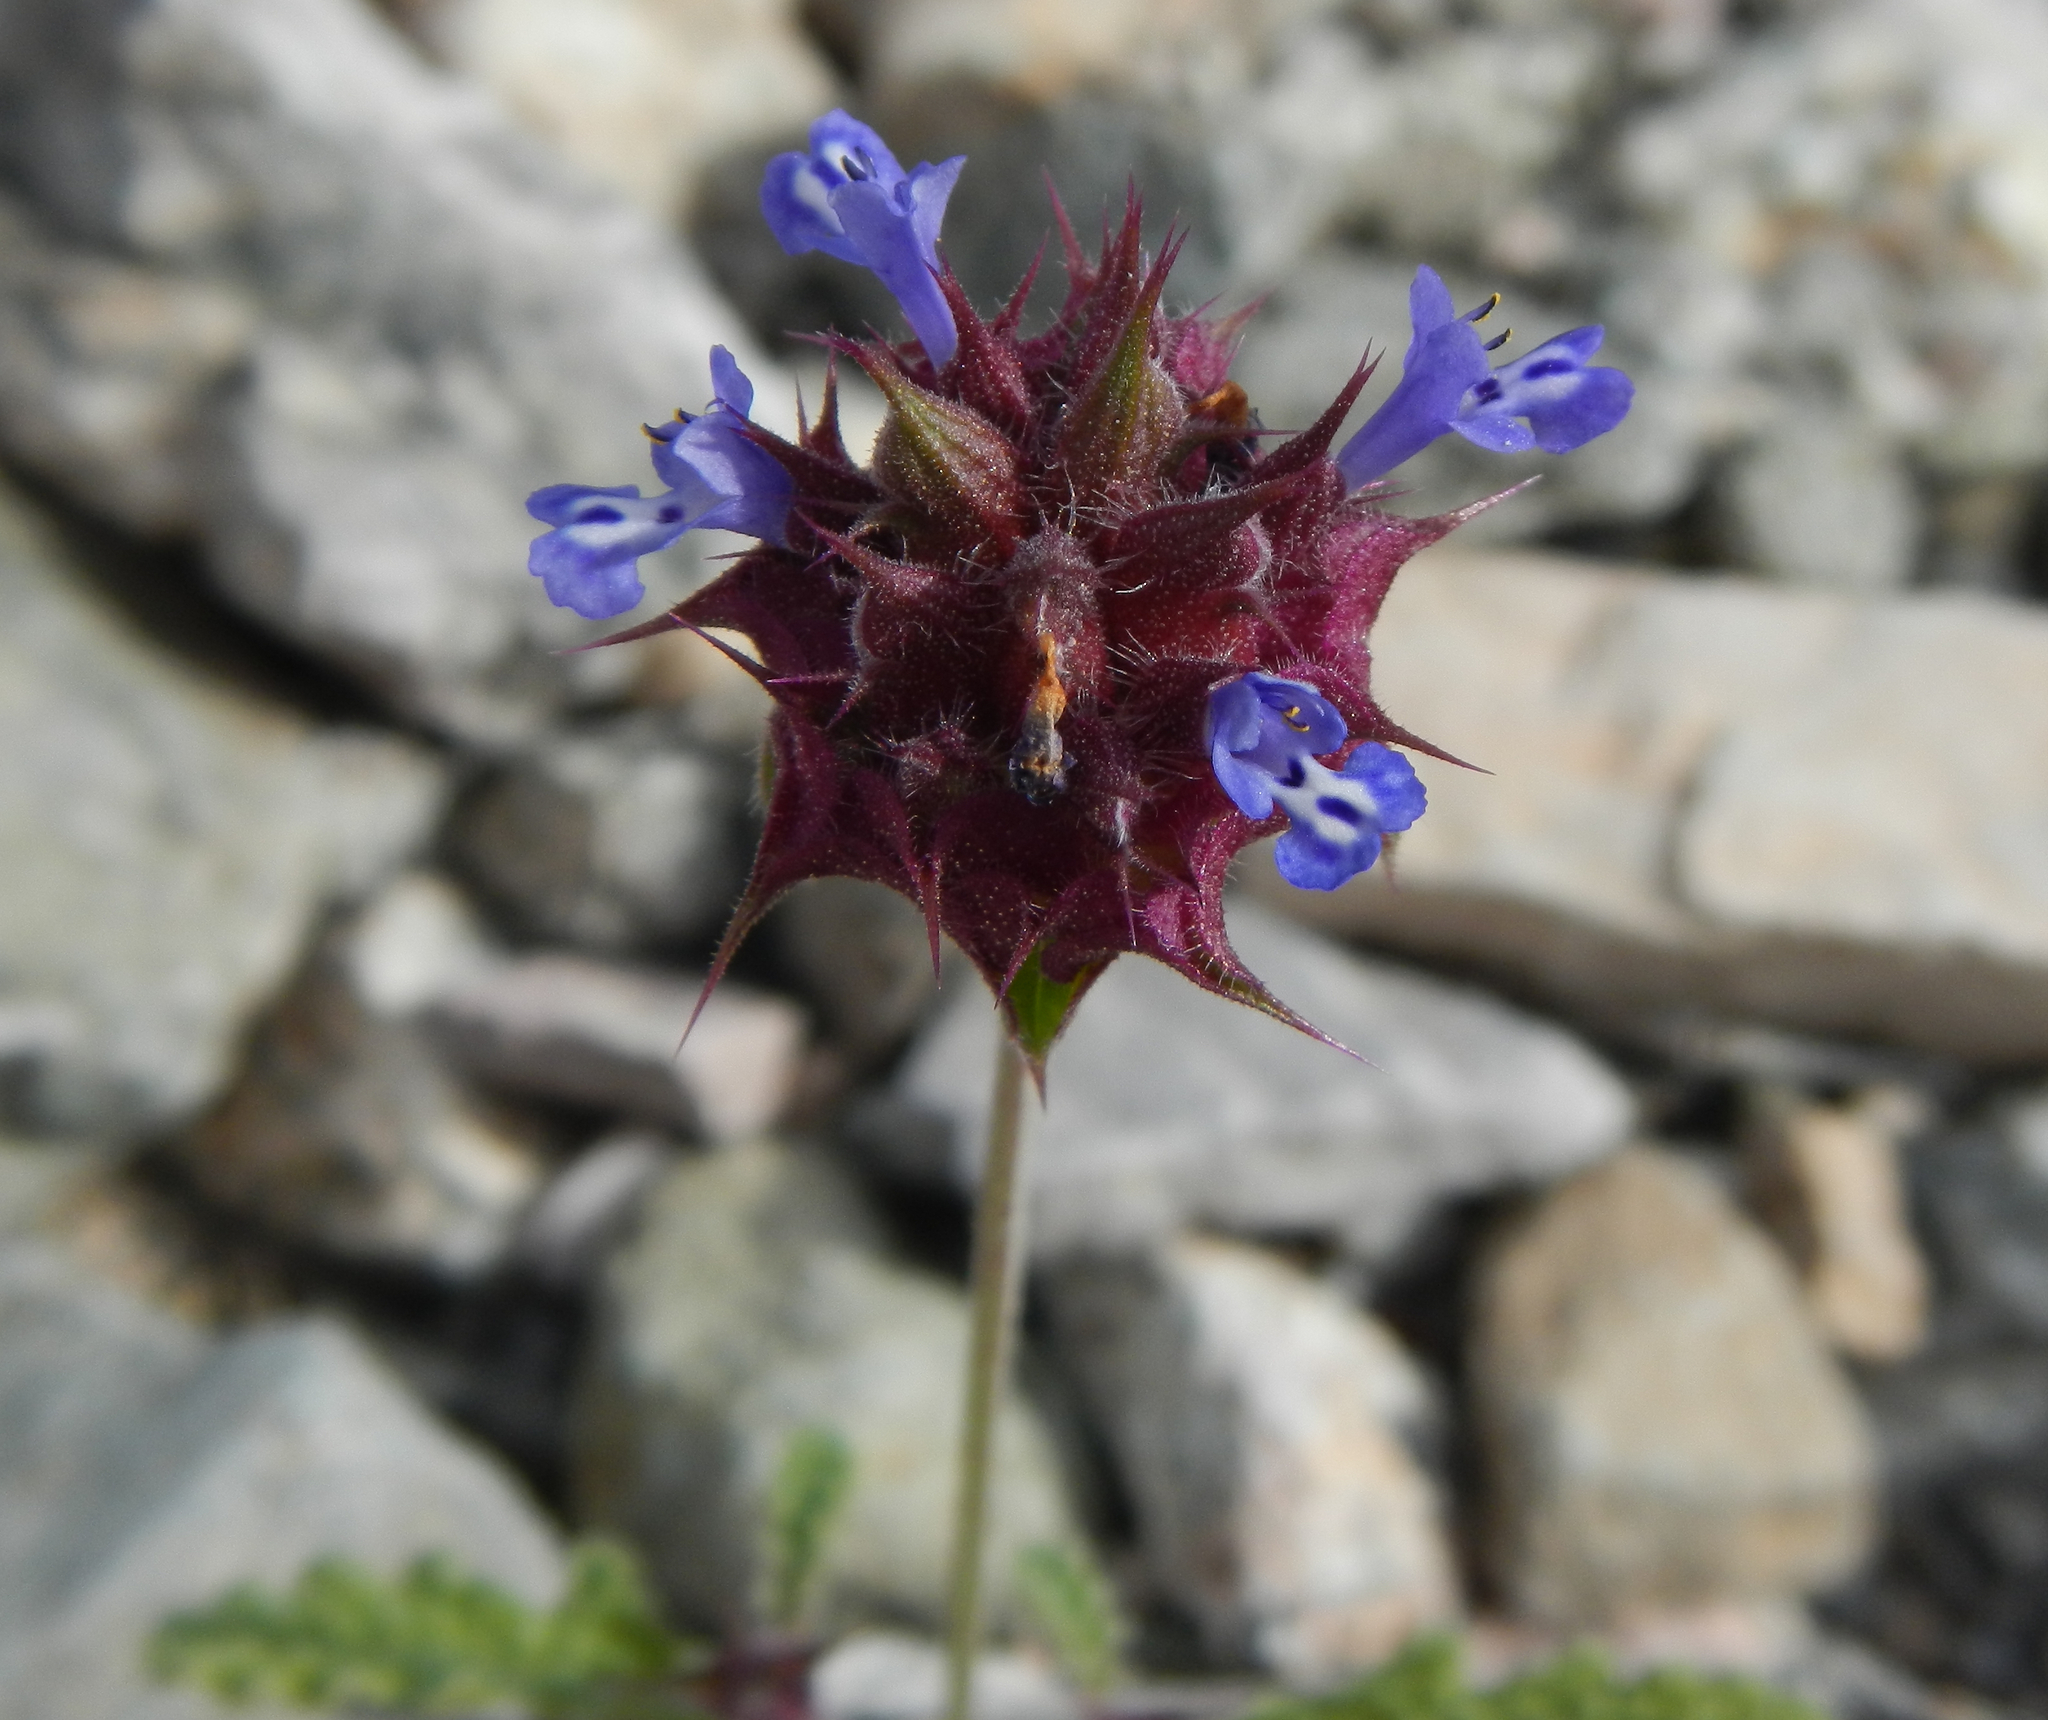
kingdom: Plantae
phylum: Tracheophyta
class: Magnoliopsida
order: Lamiales
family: Lamiaceae
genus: Salvia
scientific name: Salvia columbariae
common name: Chia
